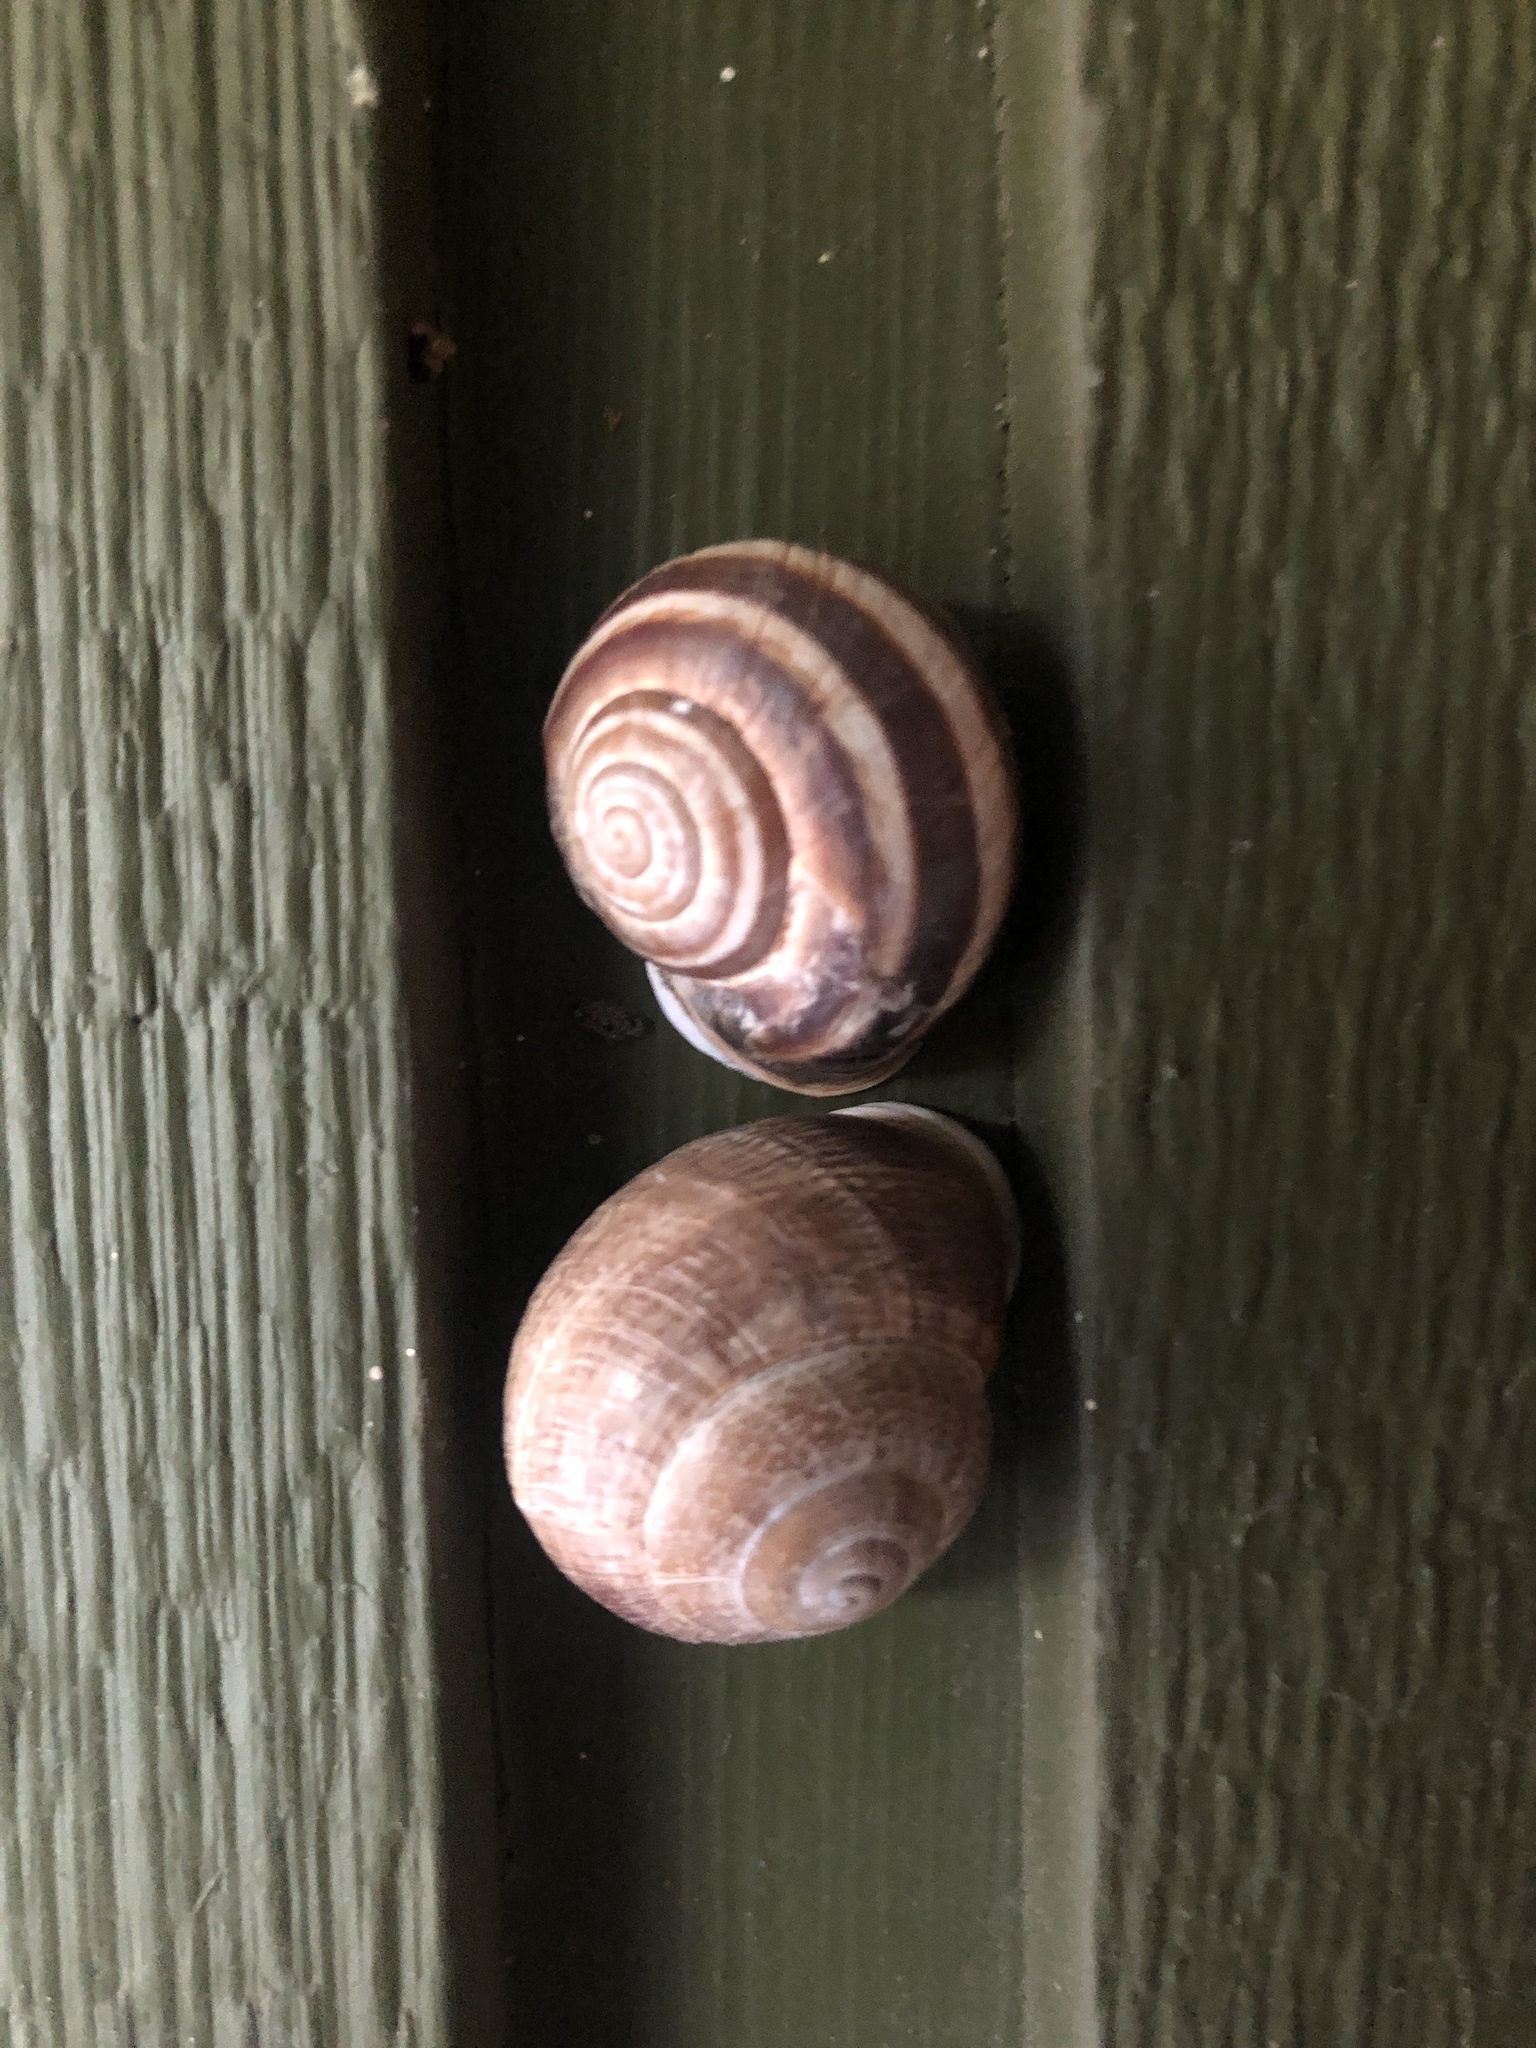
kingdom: Animalia
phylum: Mollusca
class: Gastropoda
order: Stylommatophora
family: Helicidae
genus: Otala
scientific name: Otala lactea
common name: Milk snail
